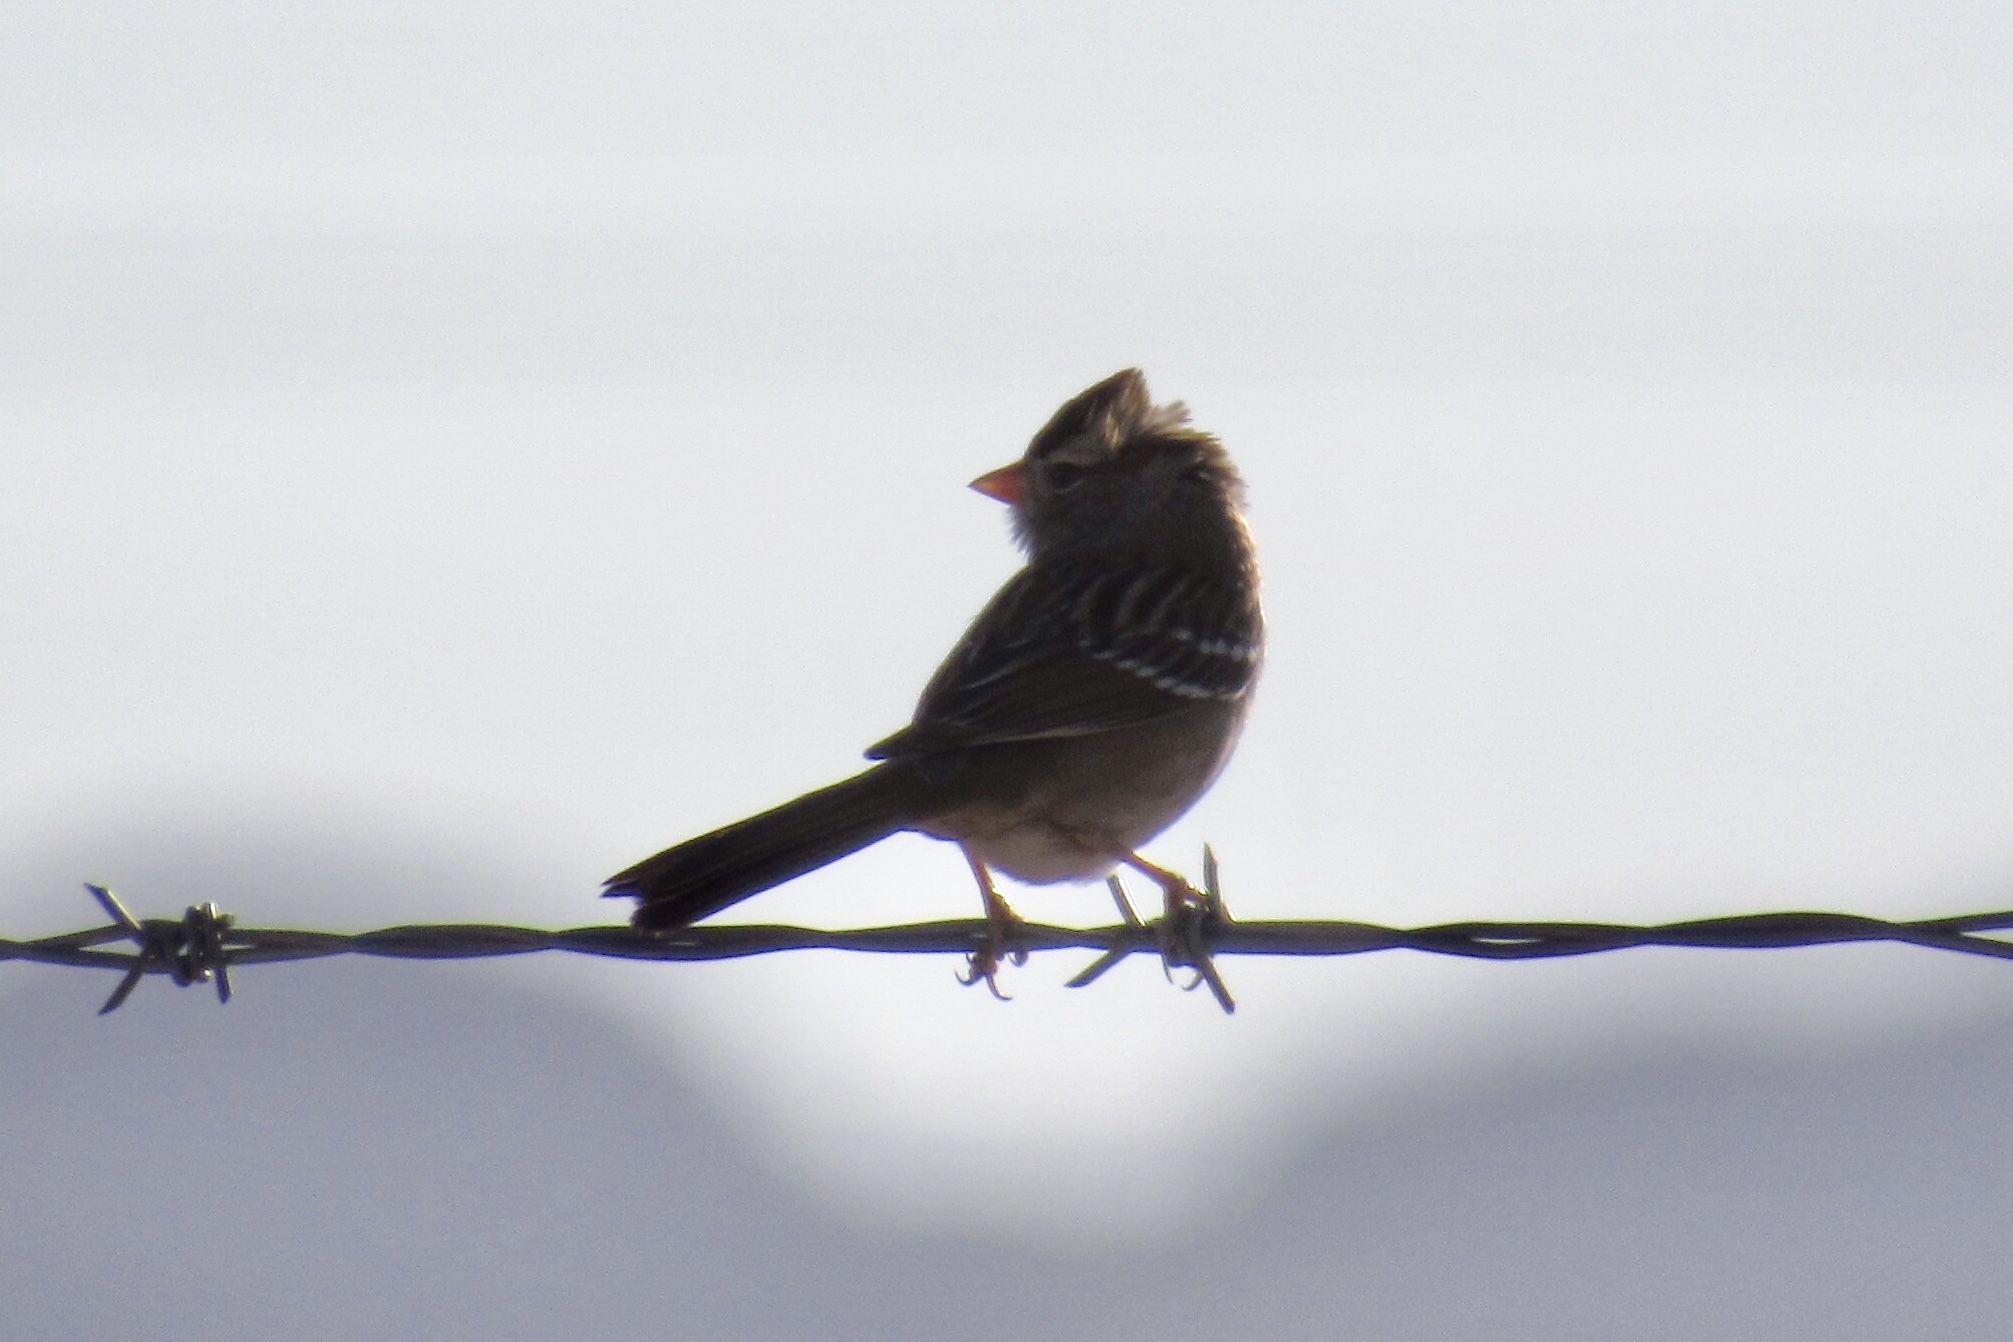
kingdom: Animalia
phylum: Chordata
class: Aves
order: Passeriformes
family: Passerellidae
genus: Zonotrichia
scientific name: Zonotrichia leucophrys
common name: White-crowned sparrow
